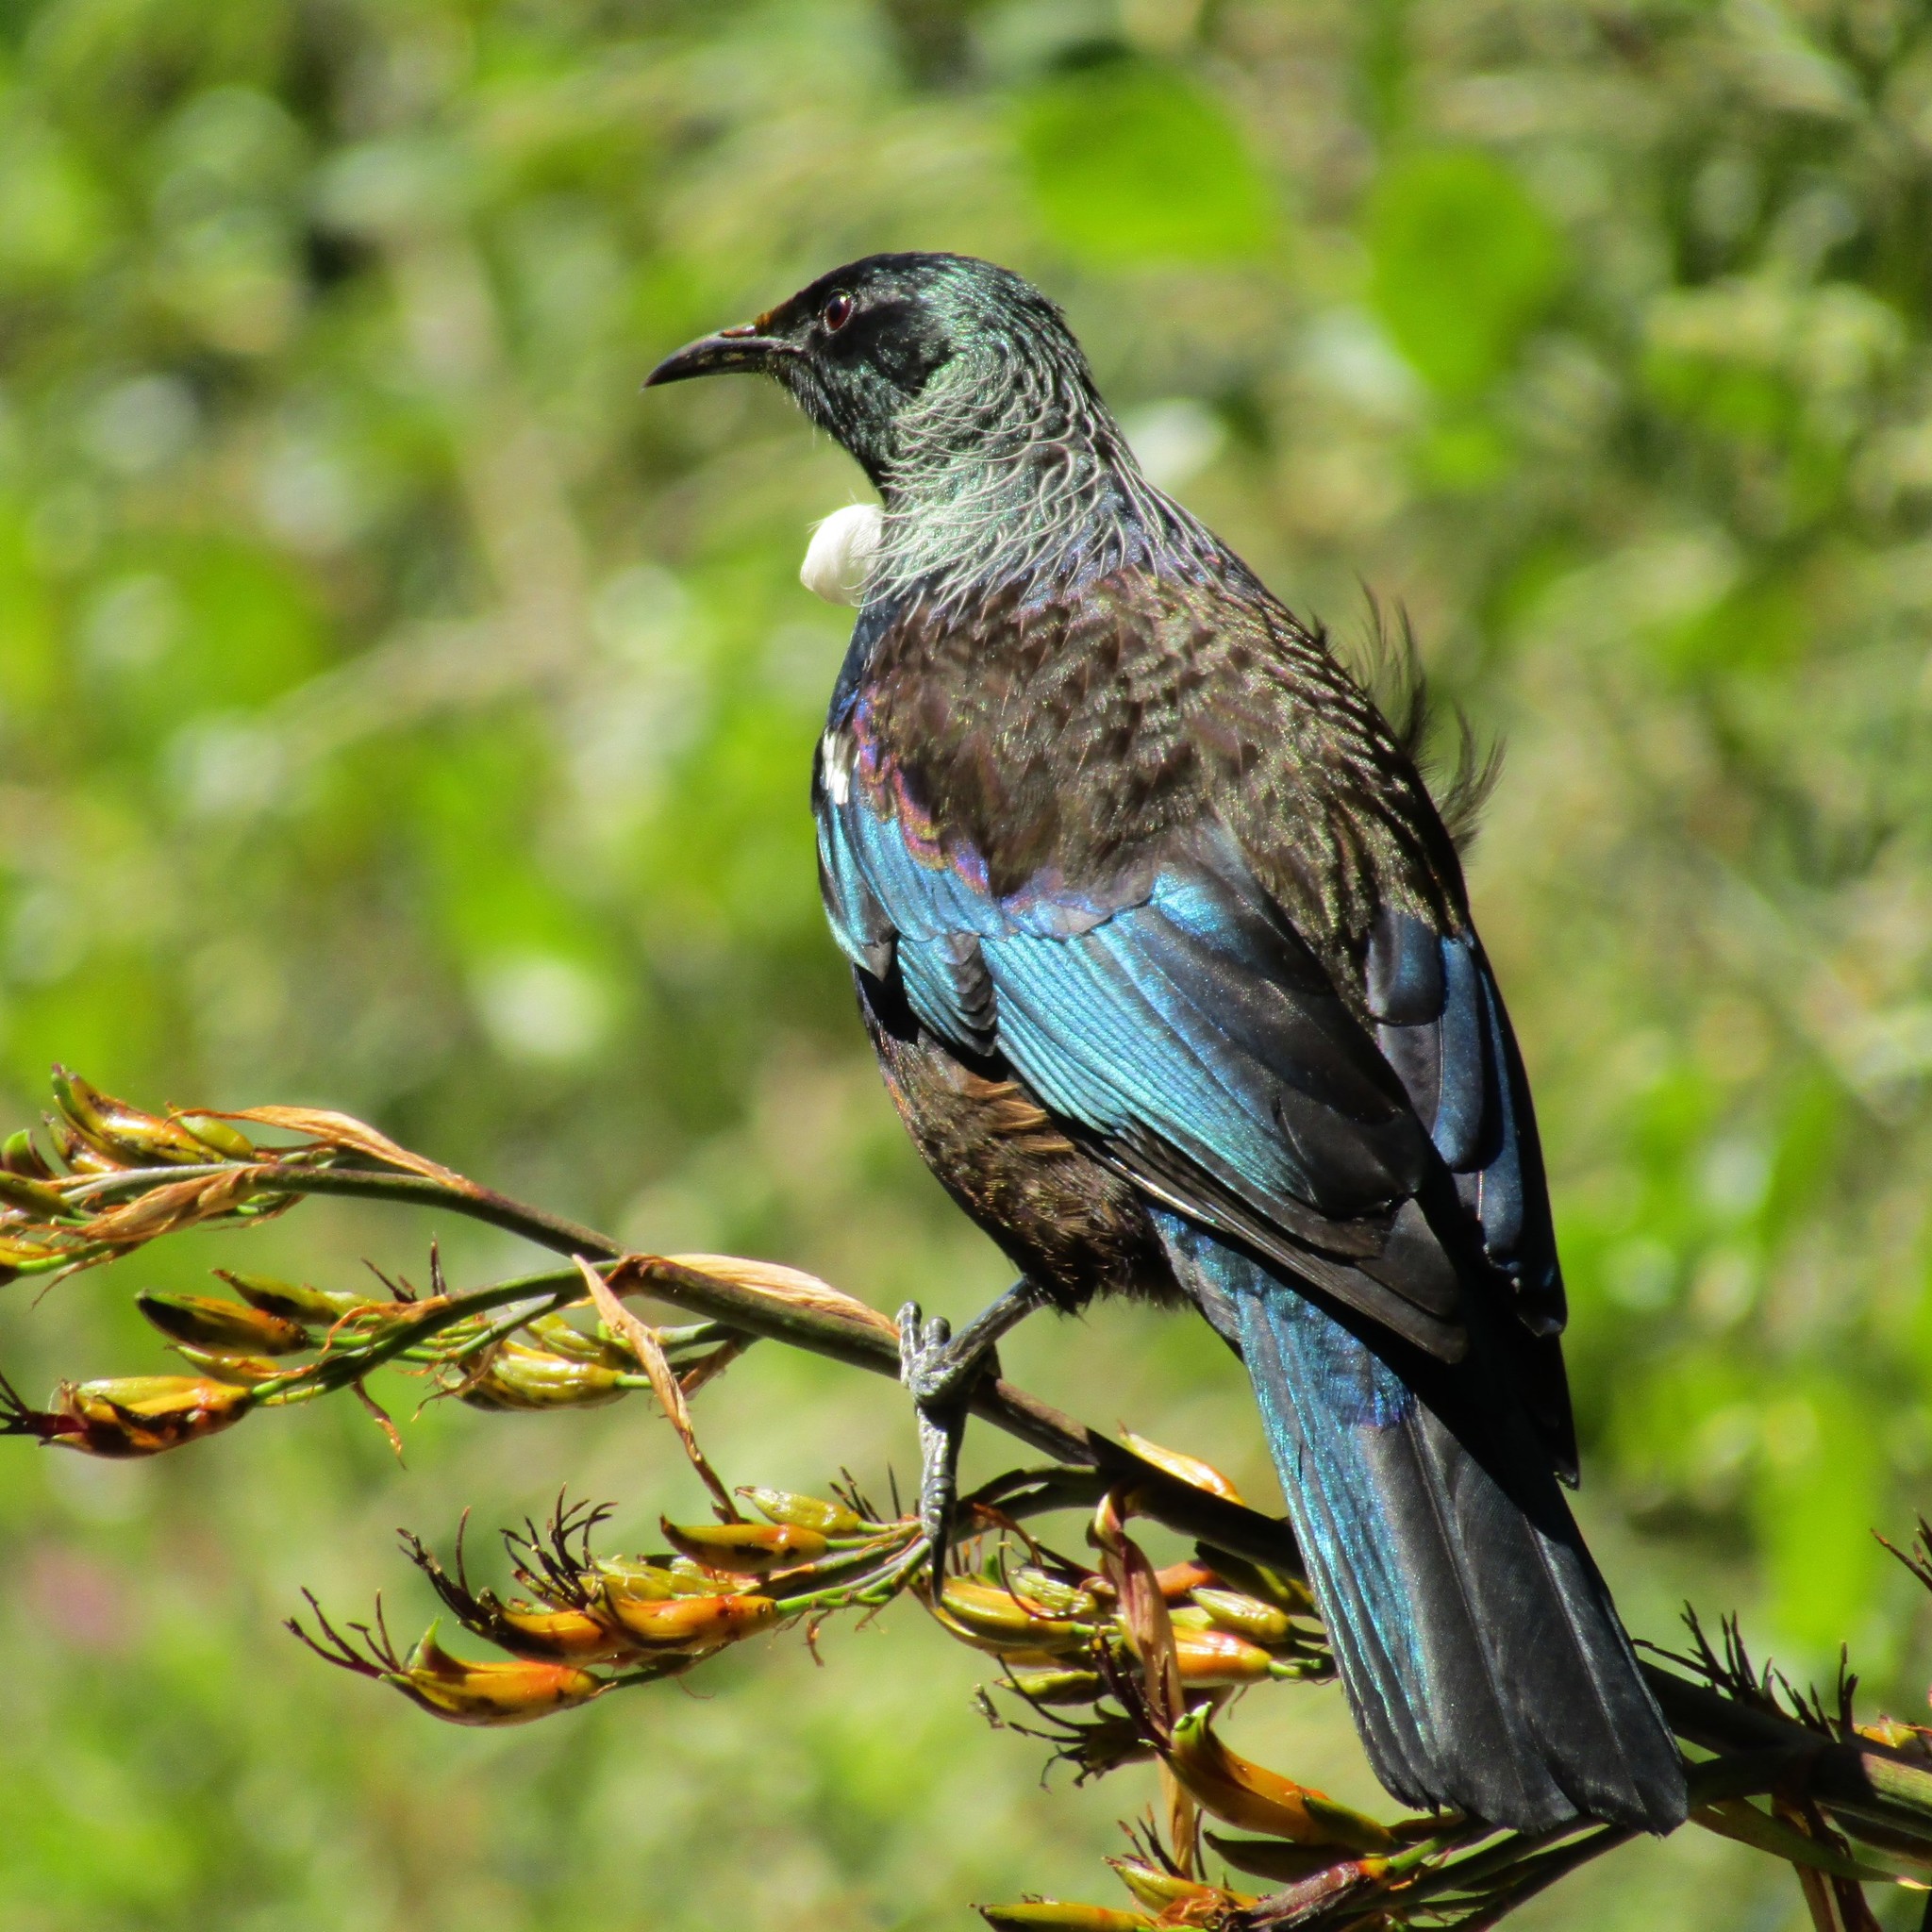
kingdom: Animalia
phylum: Chordata
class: Aves
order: Passeriformes
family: Meliphagidae
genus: Prosthemadera
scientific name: Prosthemadera novaeseelandiae
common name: Tui
